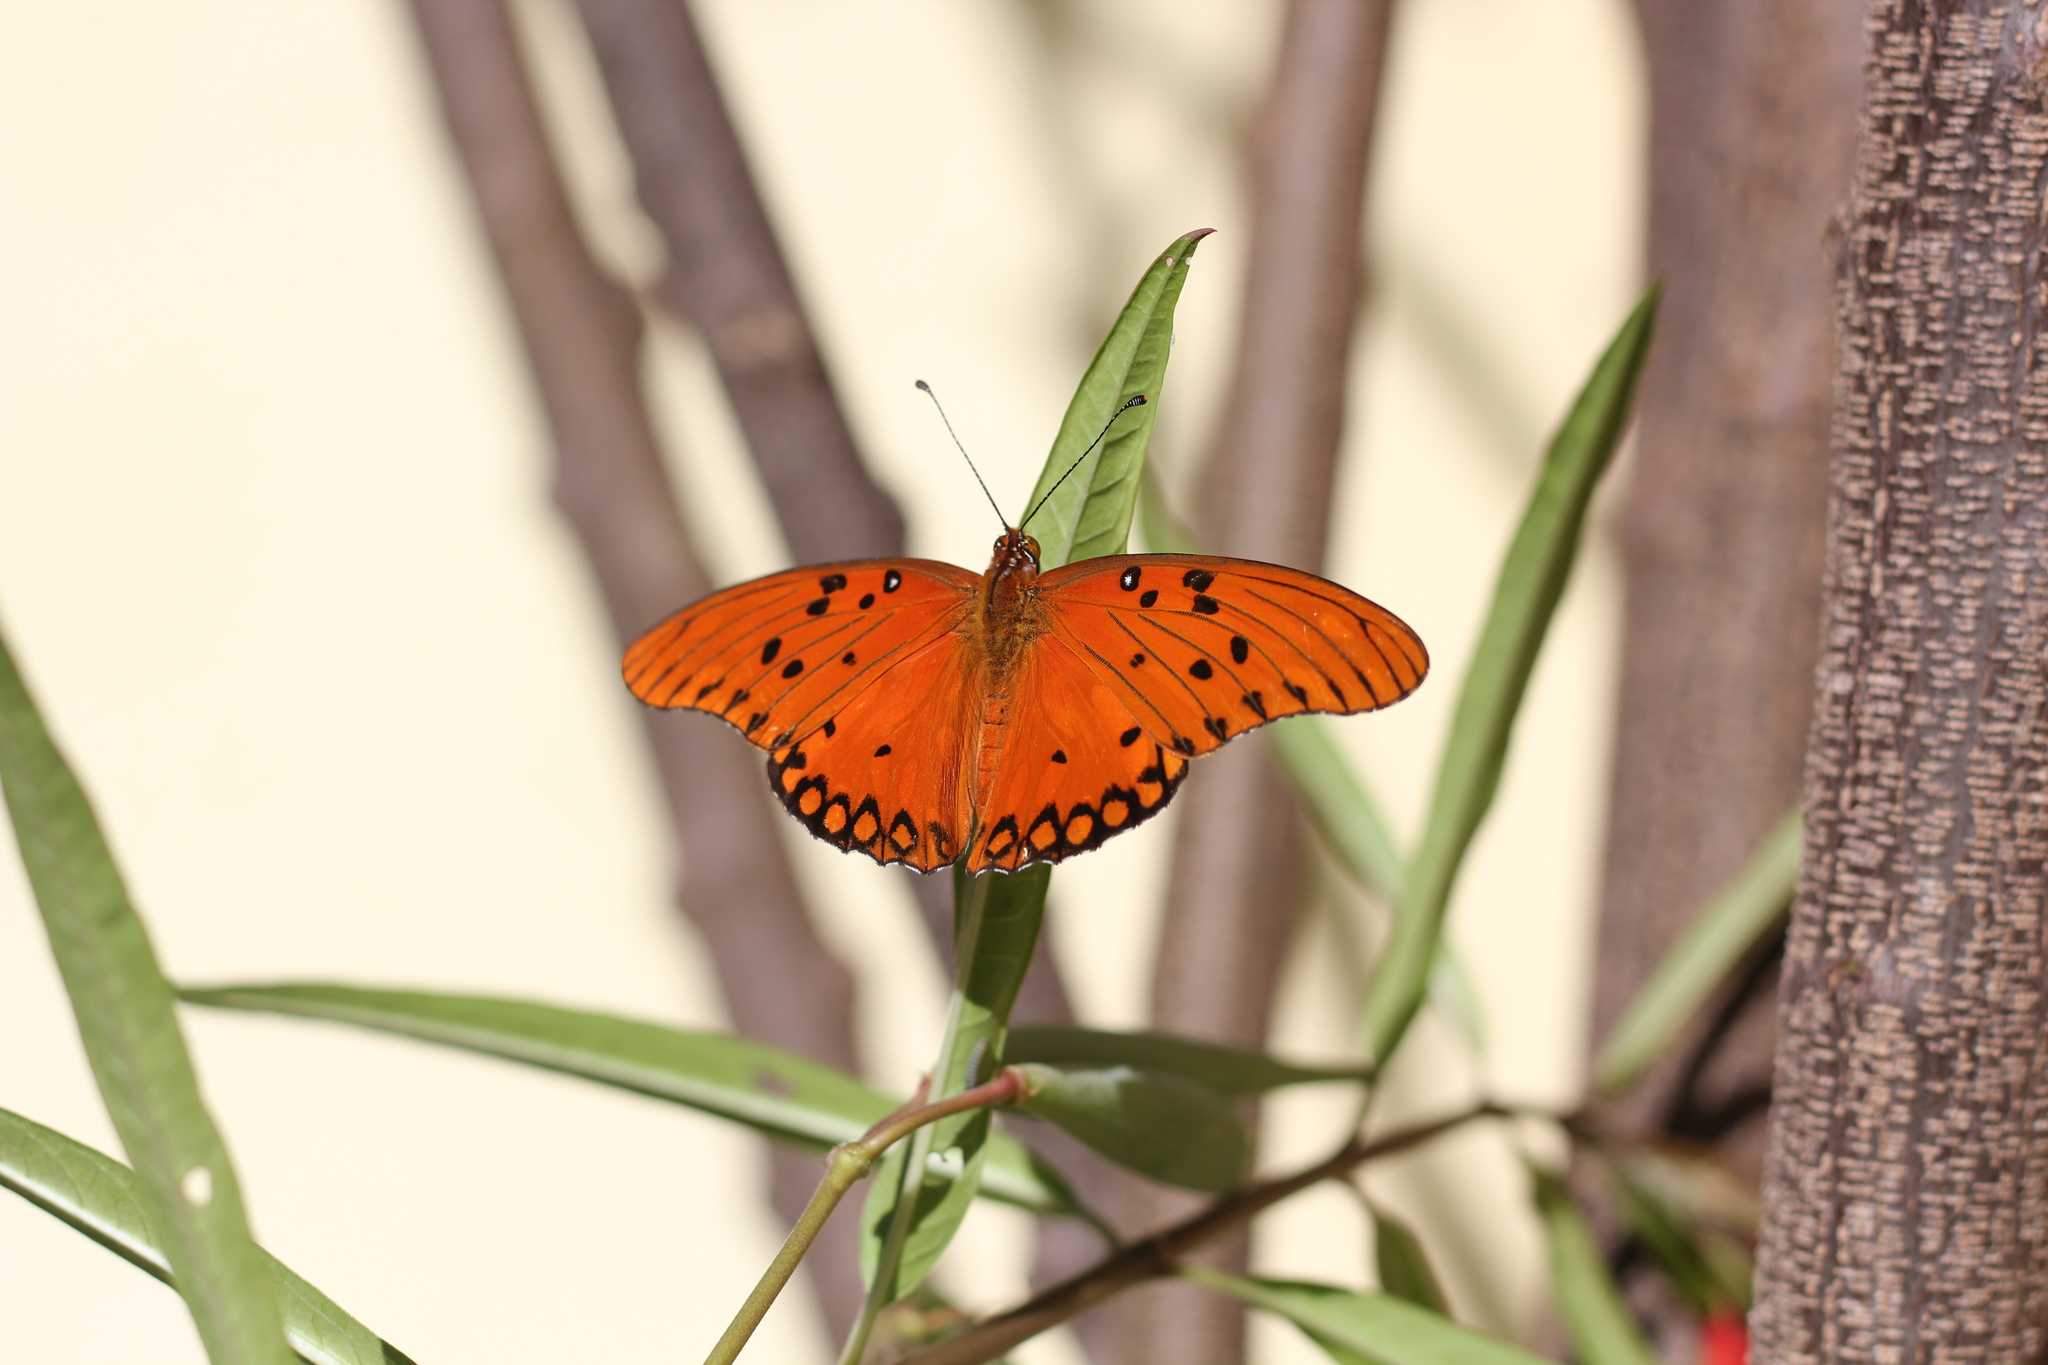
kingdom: Animalia
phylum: Arthropoda
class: Insecta
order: Lepidoptera
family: Nymphalidae
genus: Dione
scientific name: Dione vanillae
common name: Gulf fritillary
